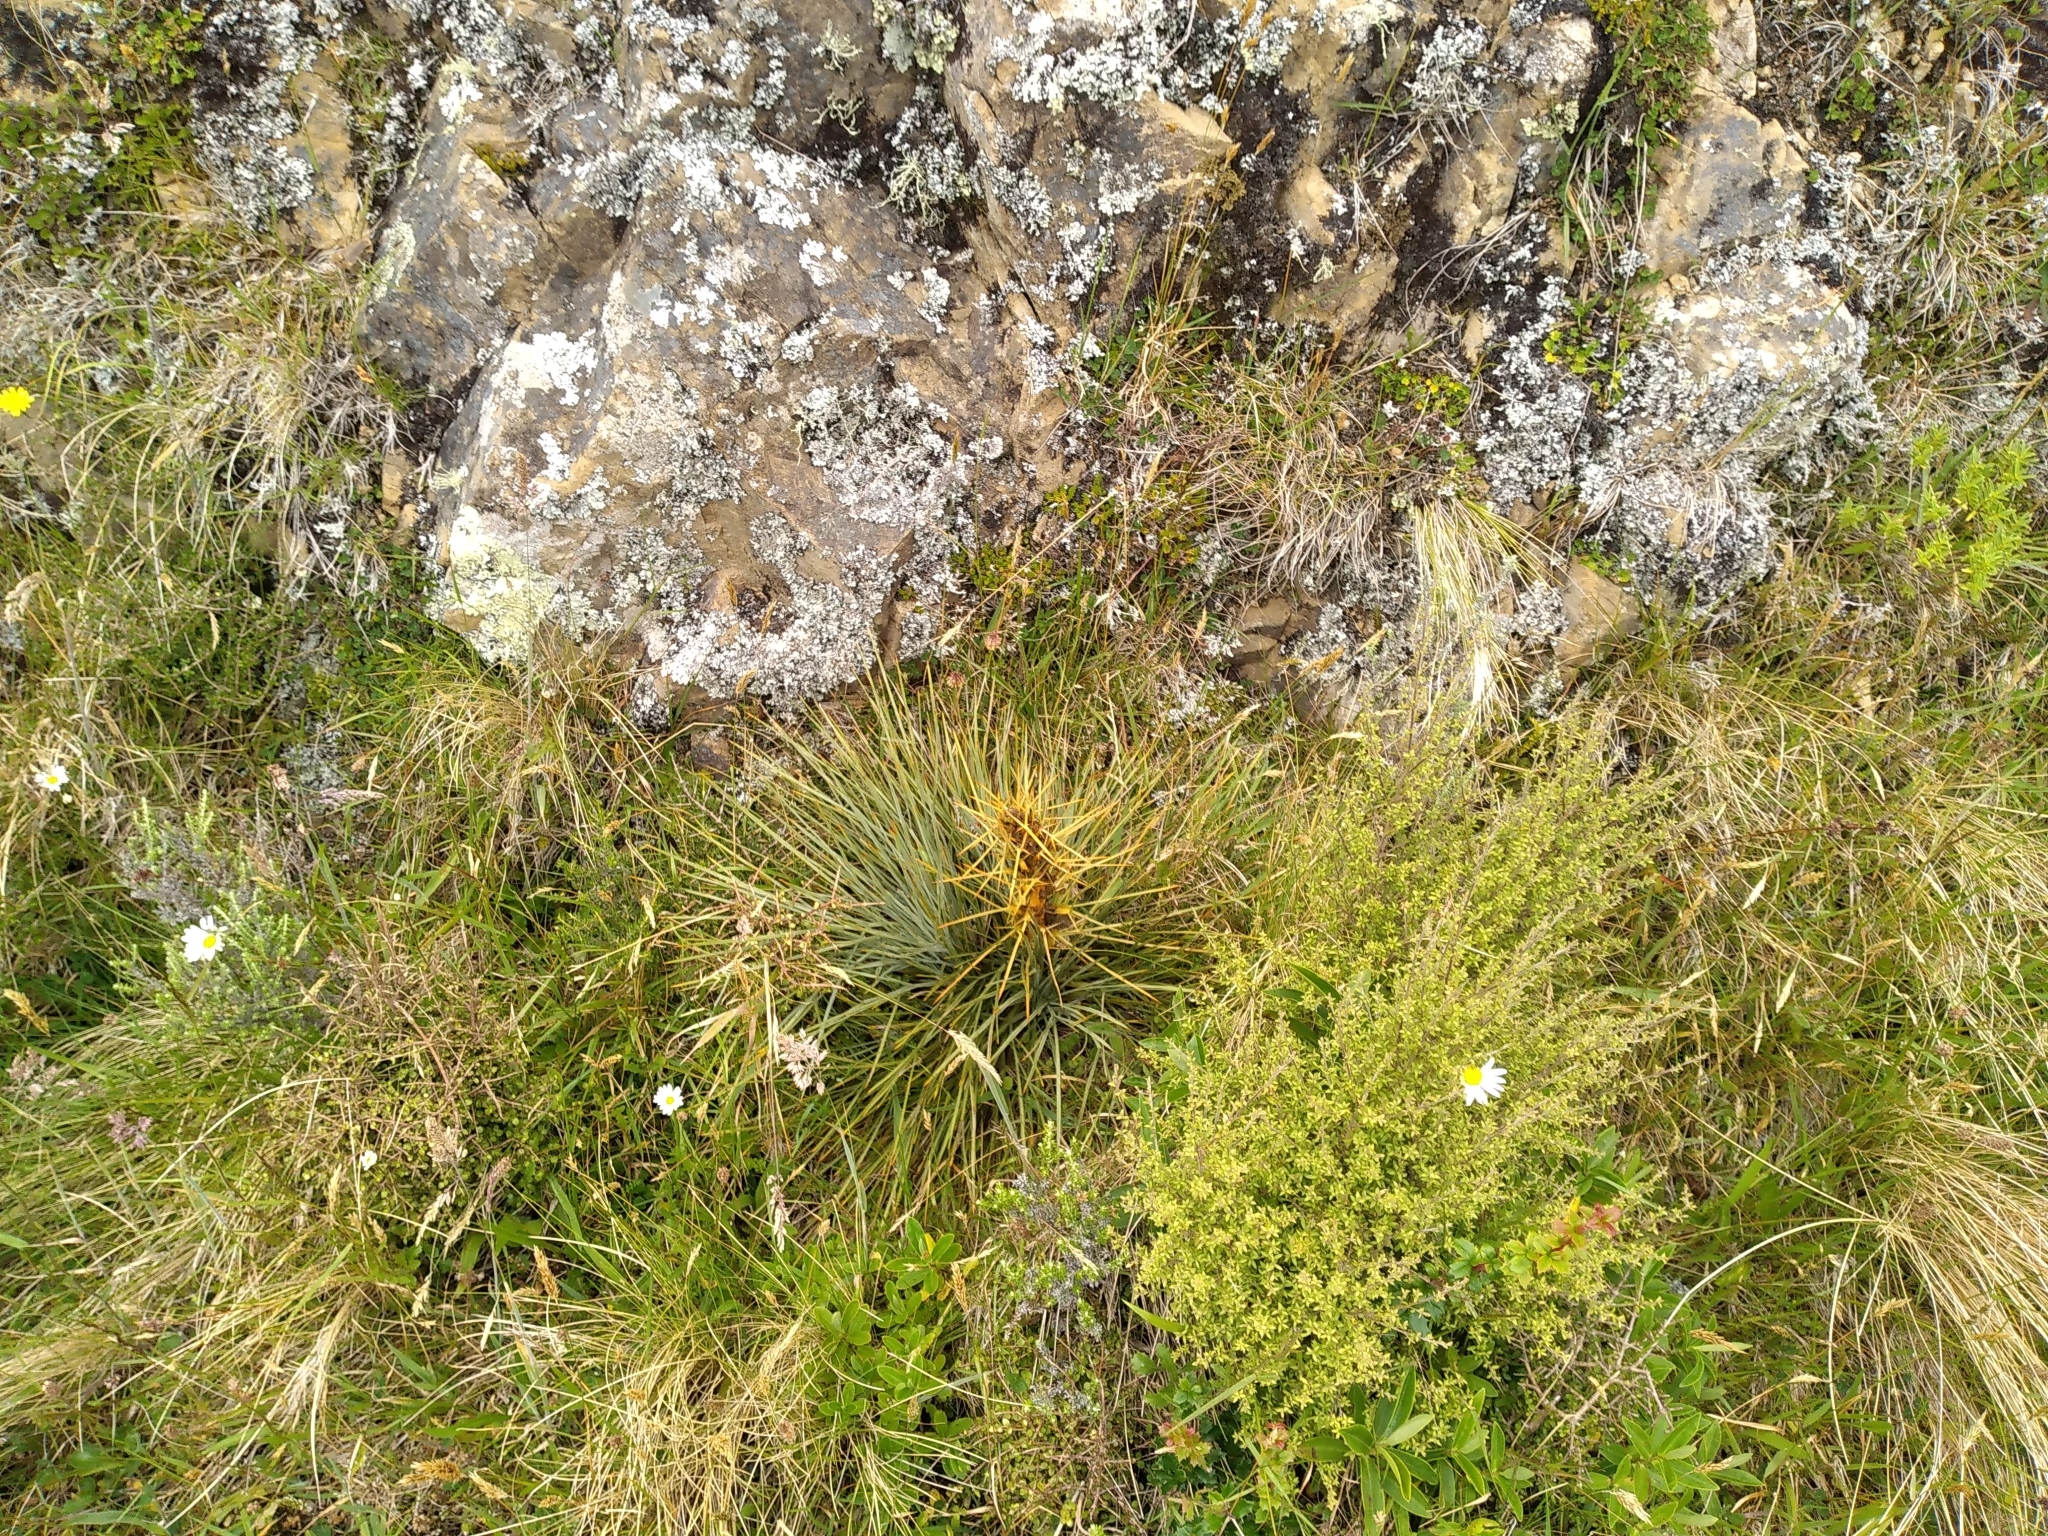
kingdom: Plantae
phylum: Tracheophyta
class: Magnoliopsida
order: Apiales
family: Apiaceae
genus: Aciphylla
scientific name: Aciphylla squarrosa
